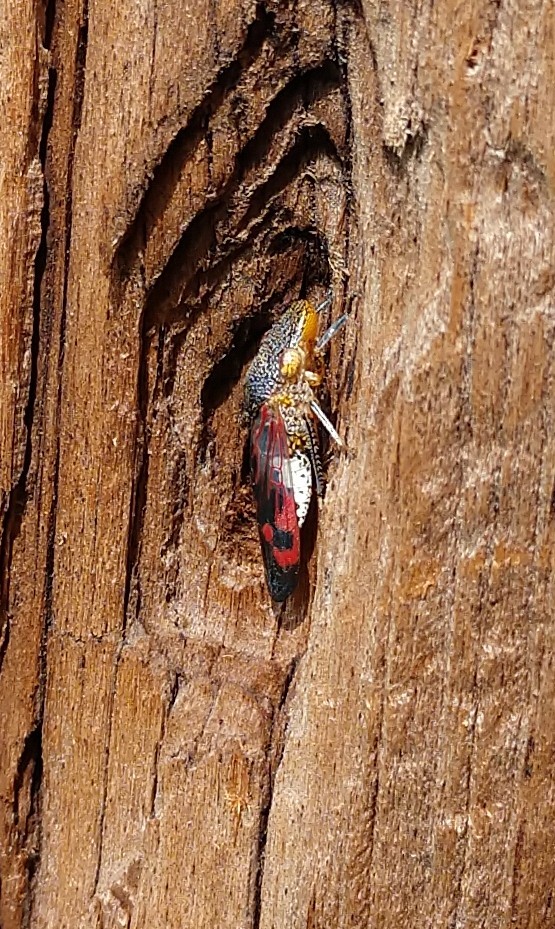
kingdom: Animalia
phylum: Arthropoda
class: Insecta
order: Hemiptera
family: Cicadellidae
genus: Homalodisca
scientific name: Homalodisca vitripennis
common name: Glassy-winged sharpshooter
